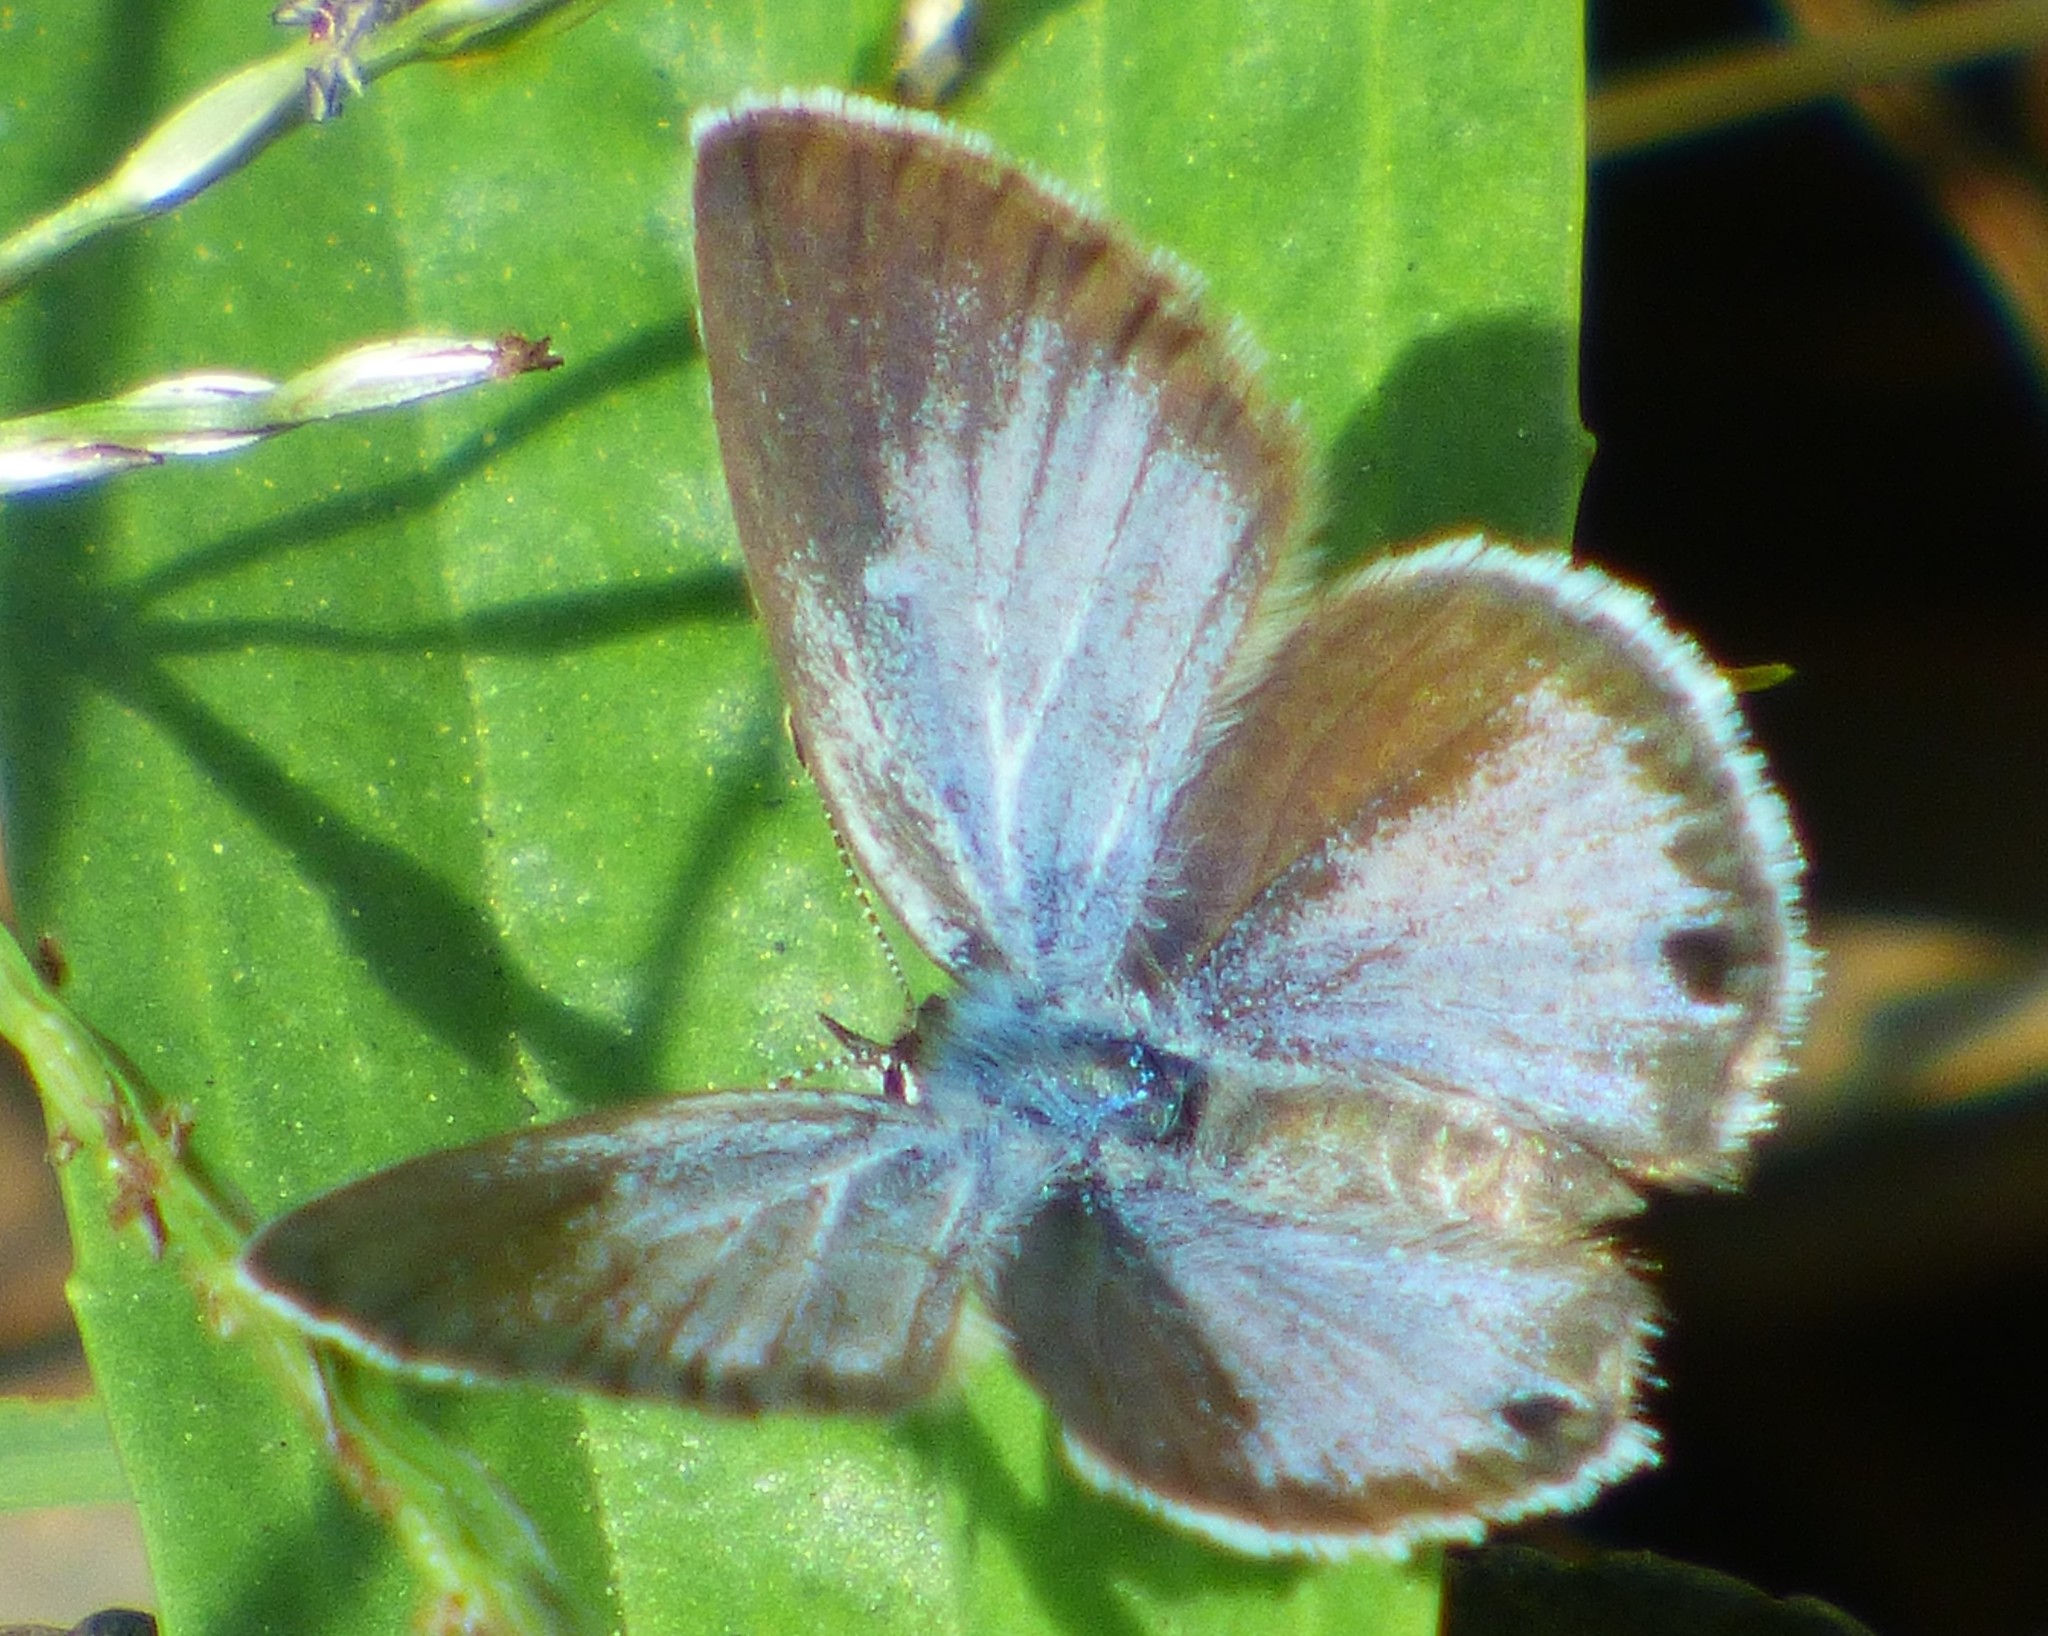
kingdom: Animalia
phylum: Arthropoda
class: Insecta
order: Lepidoptera
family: Lycaenidae
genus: Hemiargus
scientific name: Hemiargus ceraunus
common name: Ceraunus blue
